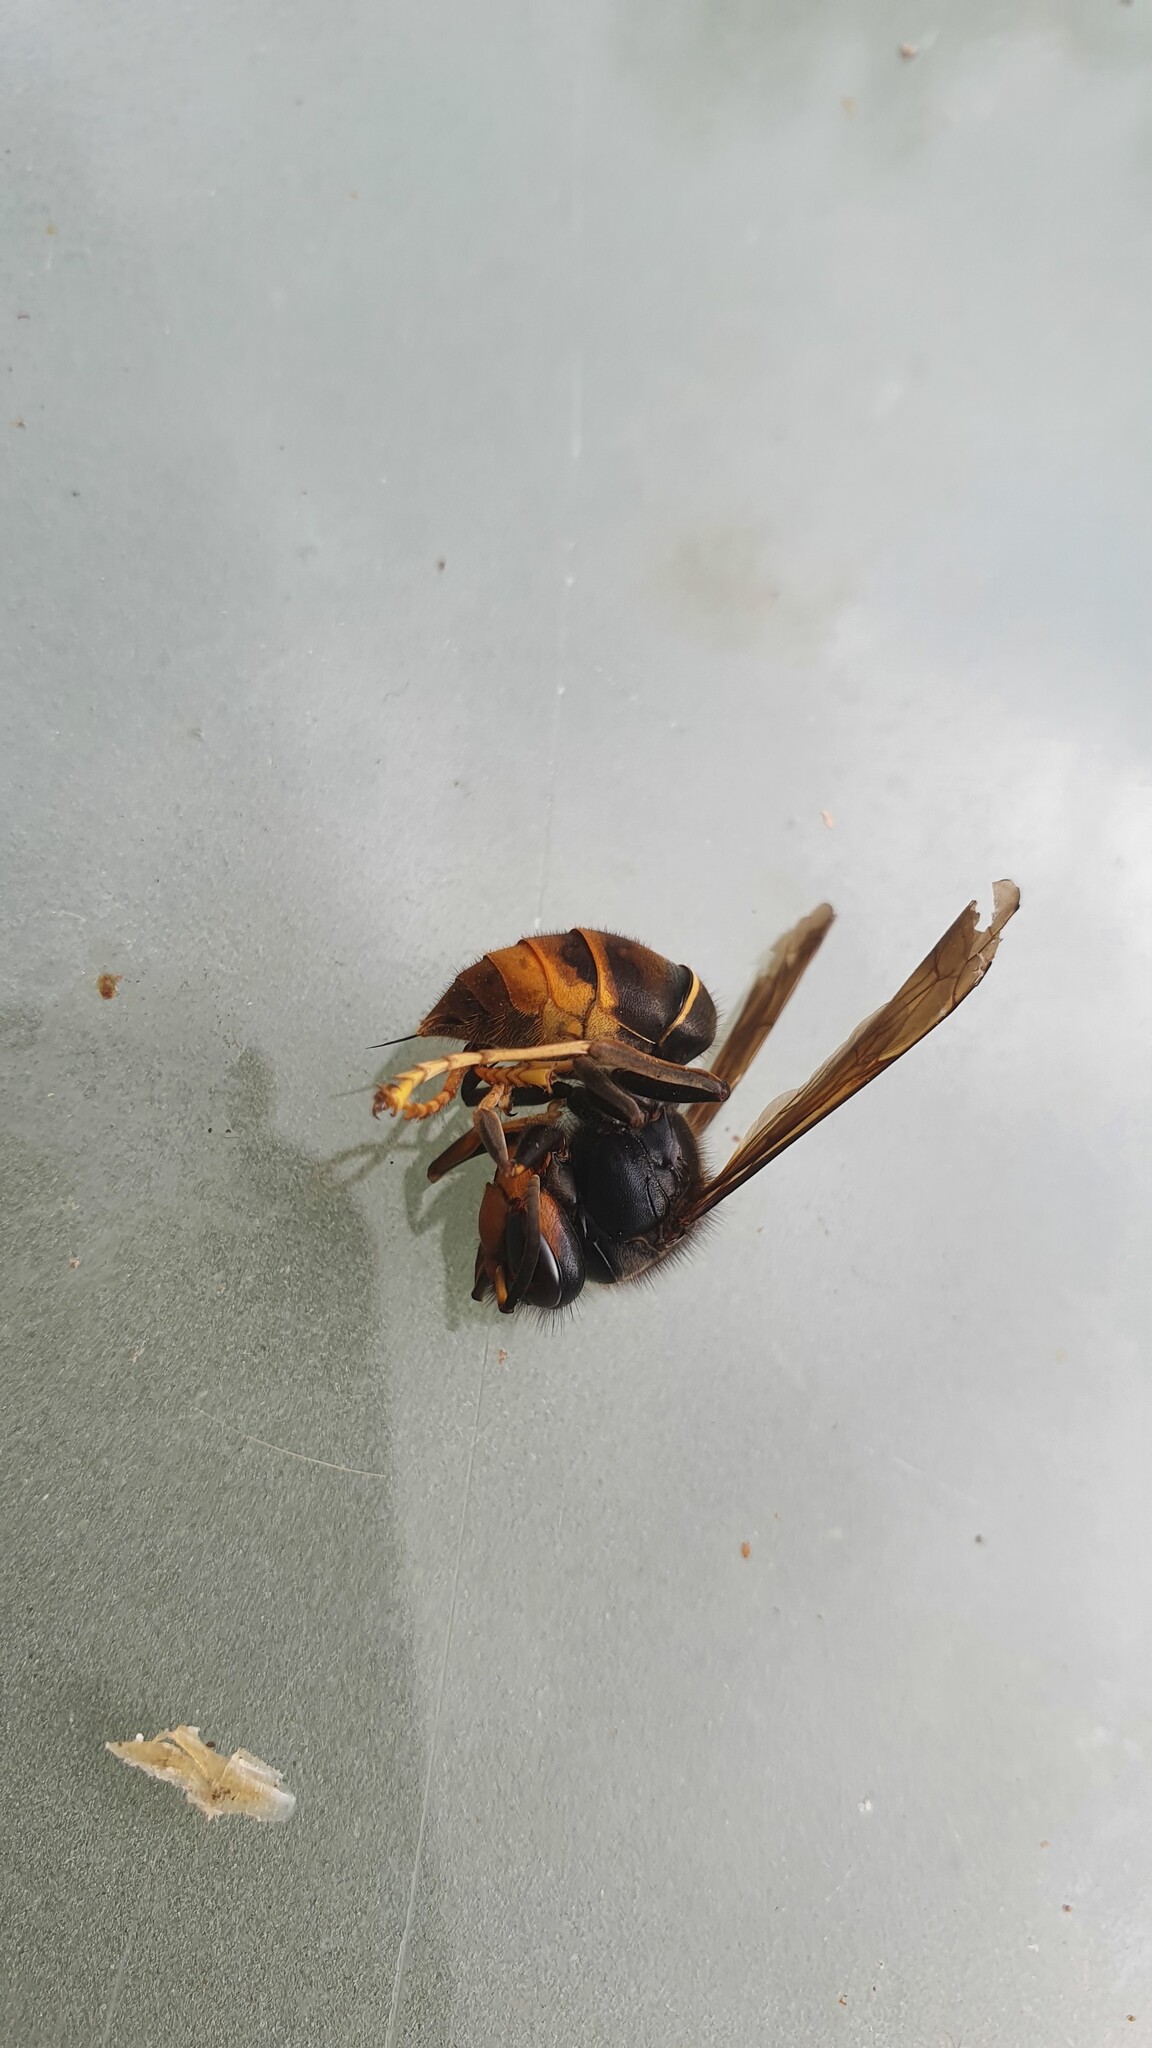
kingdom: Animalia
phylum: Arthropoda
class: Insecta
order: Hymenoptera
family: Vespidae
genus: Vespa
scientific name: Vespa velutina
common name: Asian hornet
